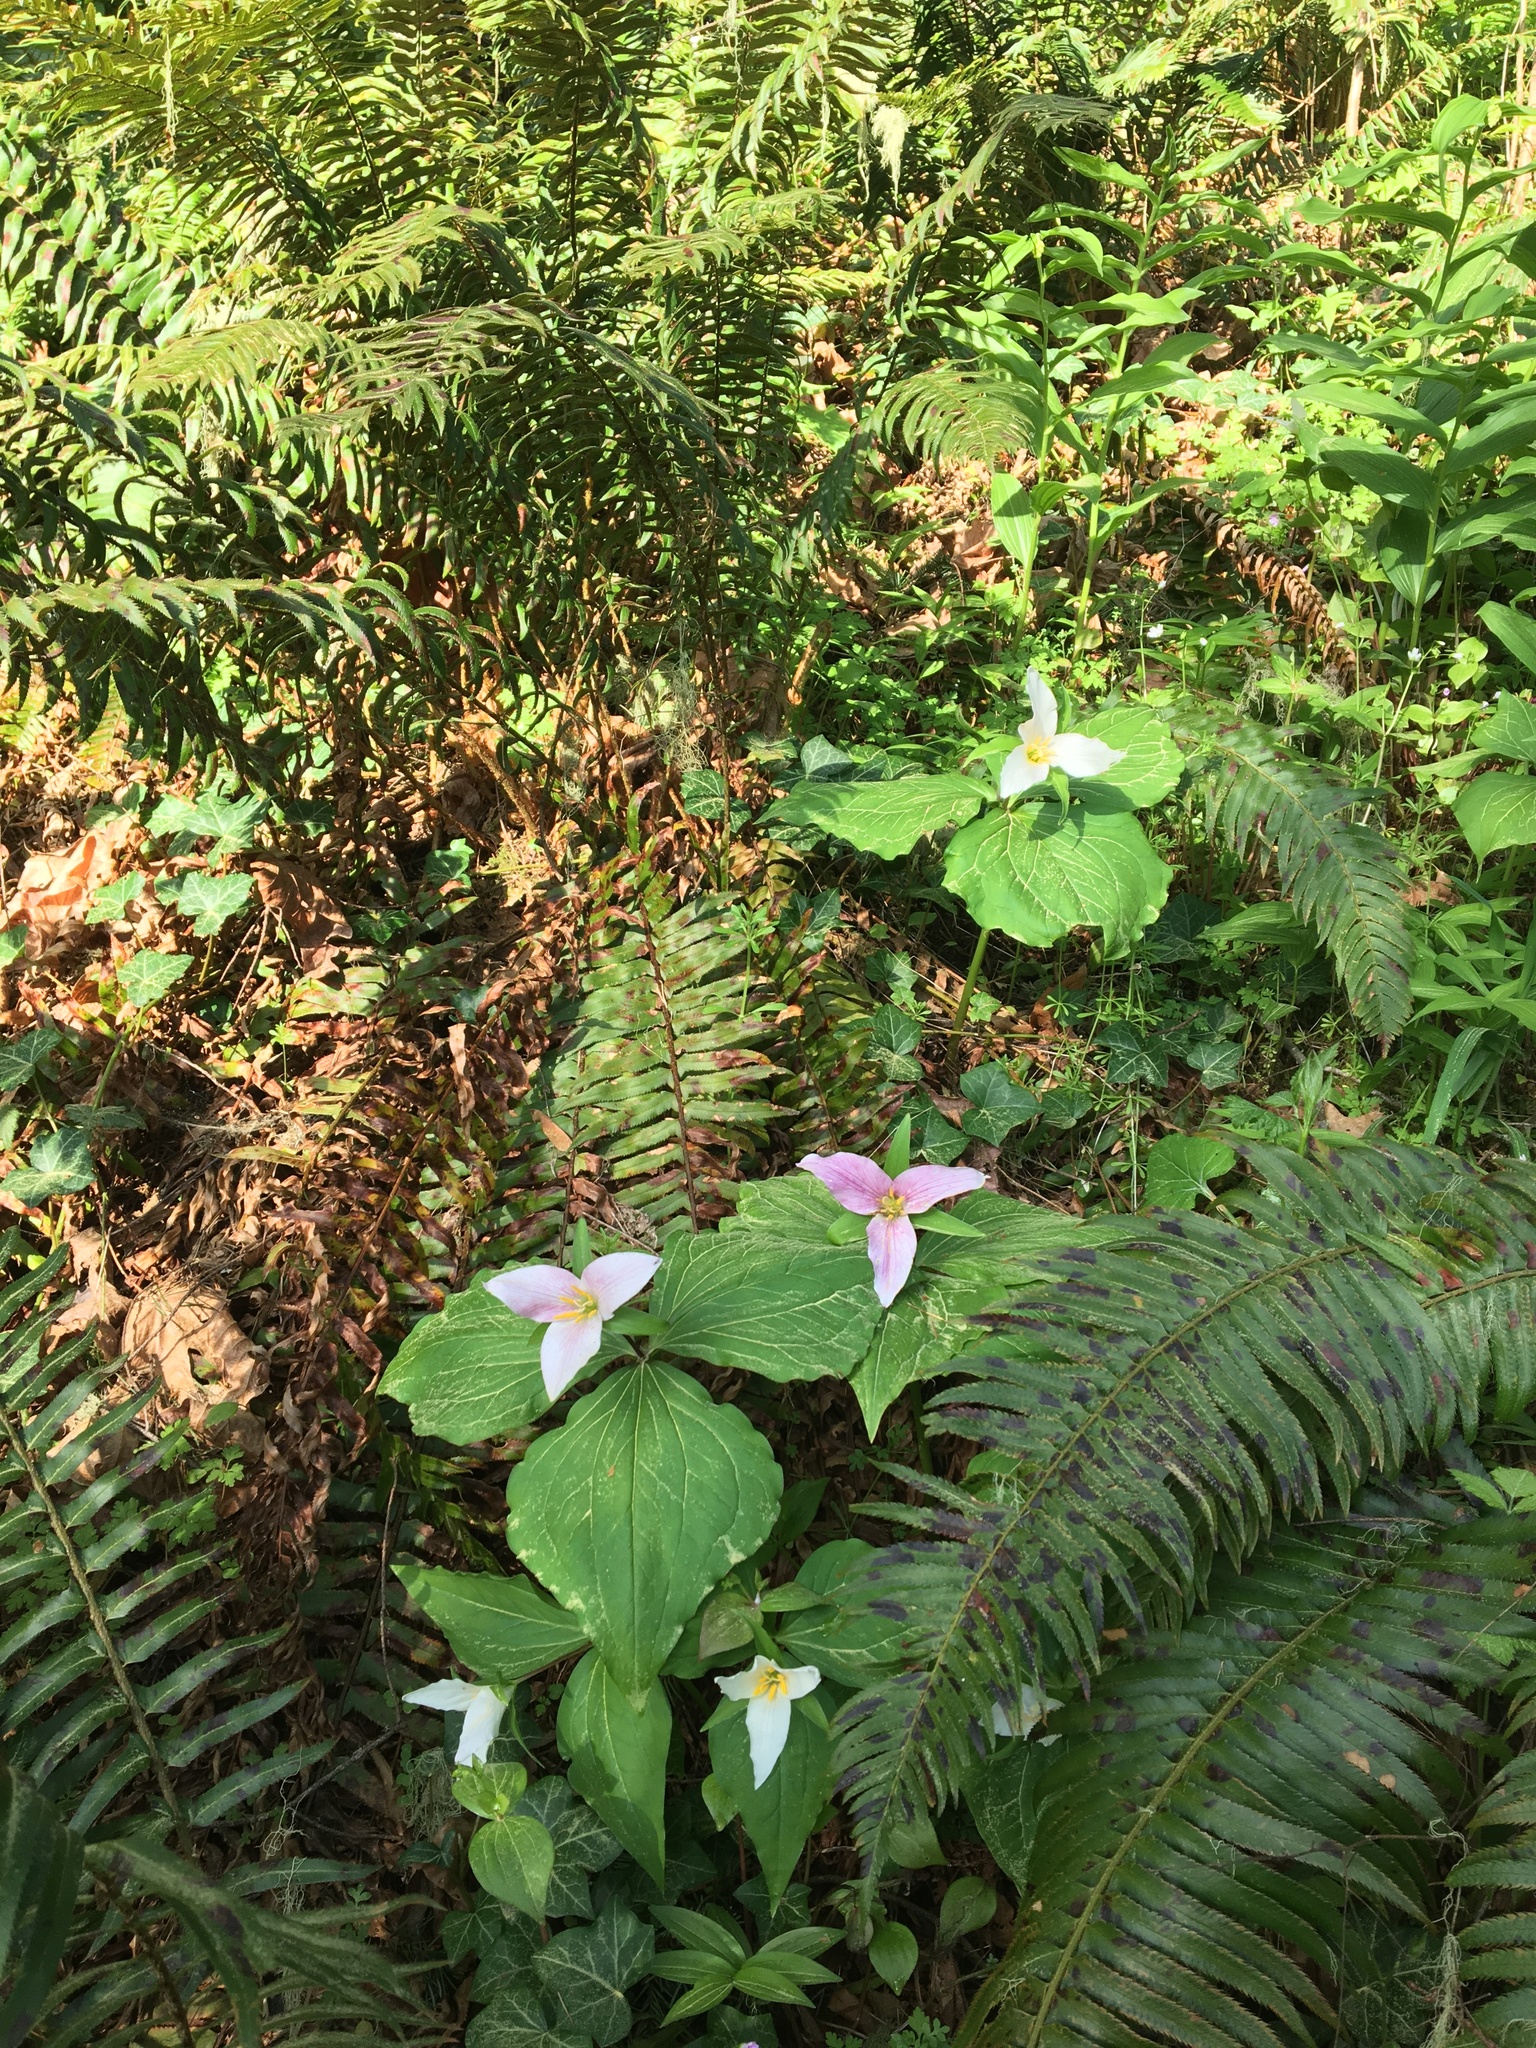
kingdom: Plantae
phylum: Tracheophyta
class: Liliopsida
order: Liliales
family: Melanthiaceae
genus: Trillium
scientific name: Trillium ovatum
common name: Pacific trillium
